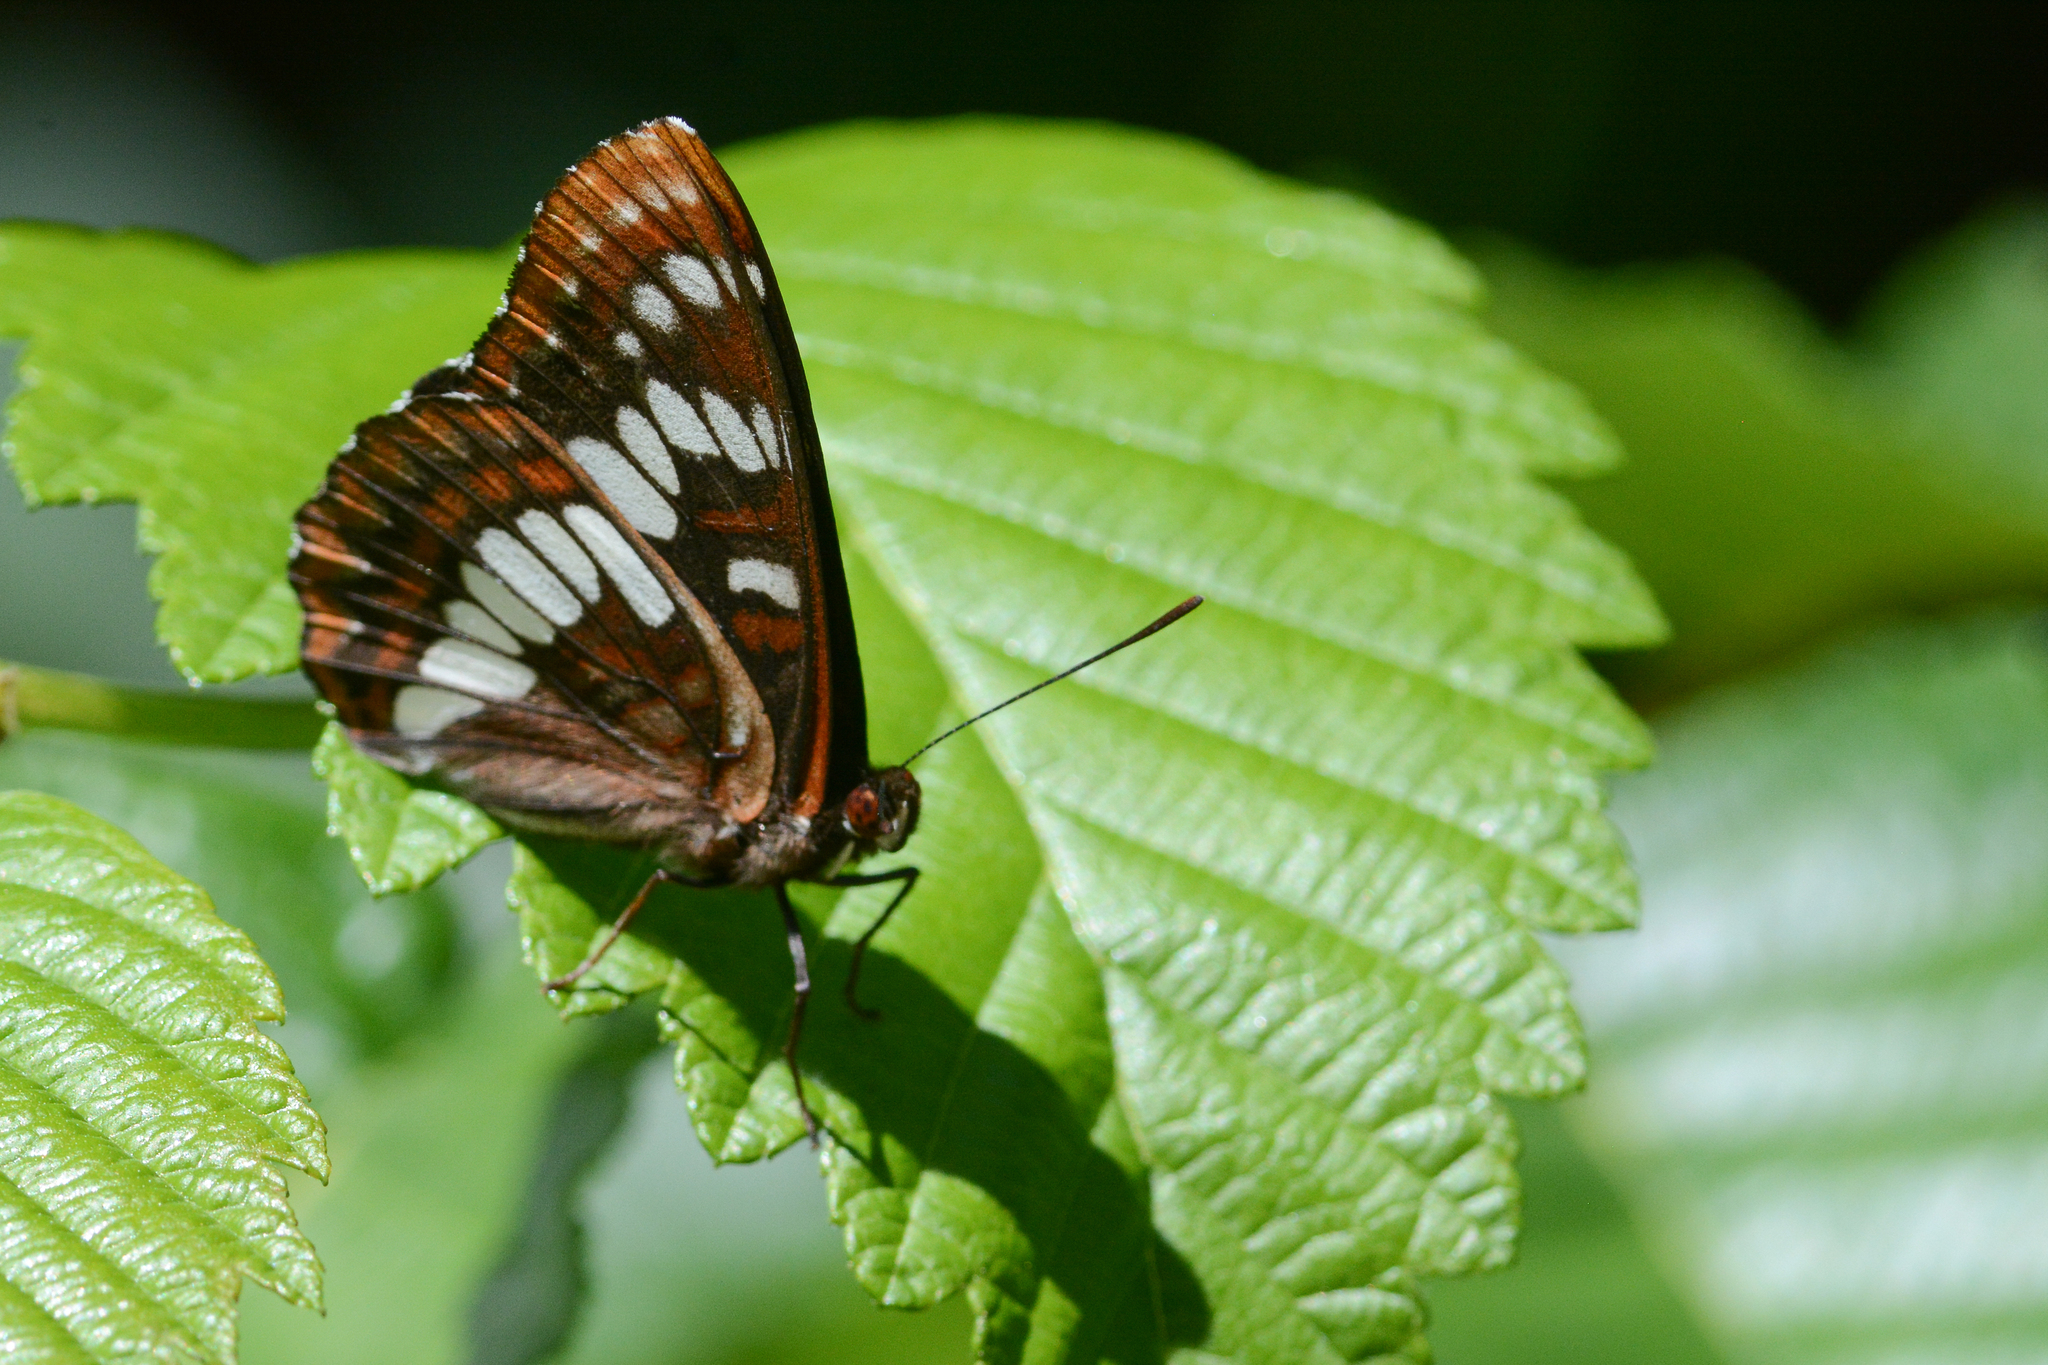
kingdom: Animalia
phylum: Arthropoda
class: Insecta
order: Lepidoptera
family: Nymphalidae
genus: Limenitis
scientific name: Limenitis lorquini
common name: Lorquin's admiral
